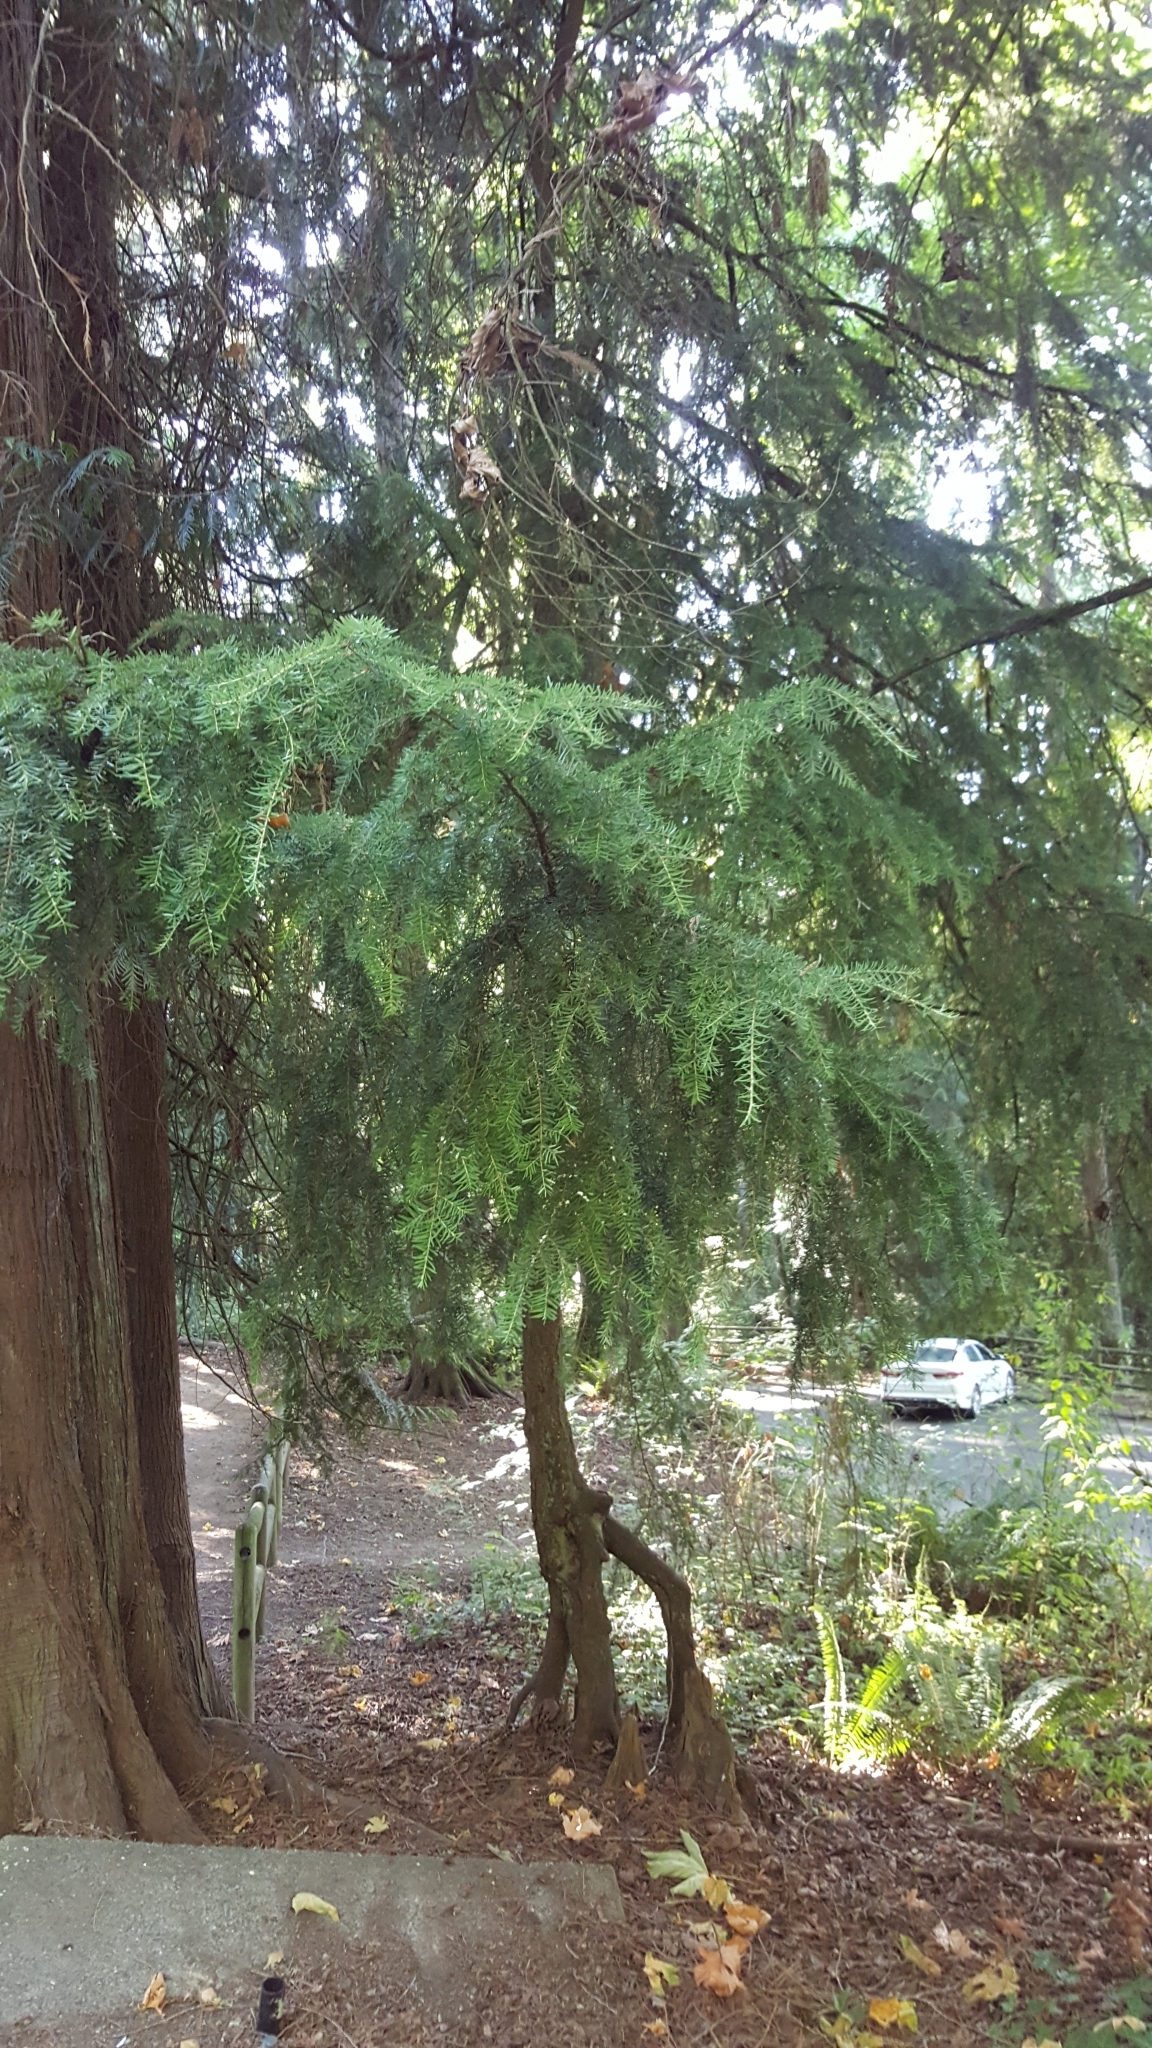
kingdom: Plantae
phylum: Tracheophyta
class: Pinopsida
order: Pinales
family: Pinaceae
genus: Tsuga
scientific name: Tsuga heterophylla
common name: Western hemlock
